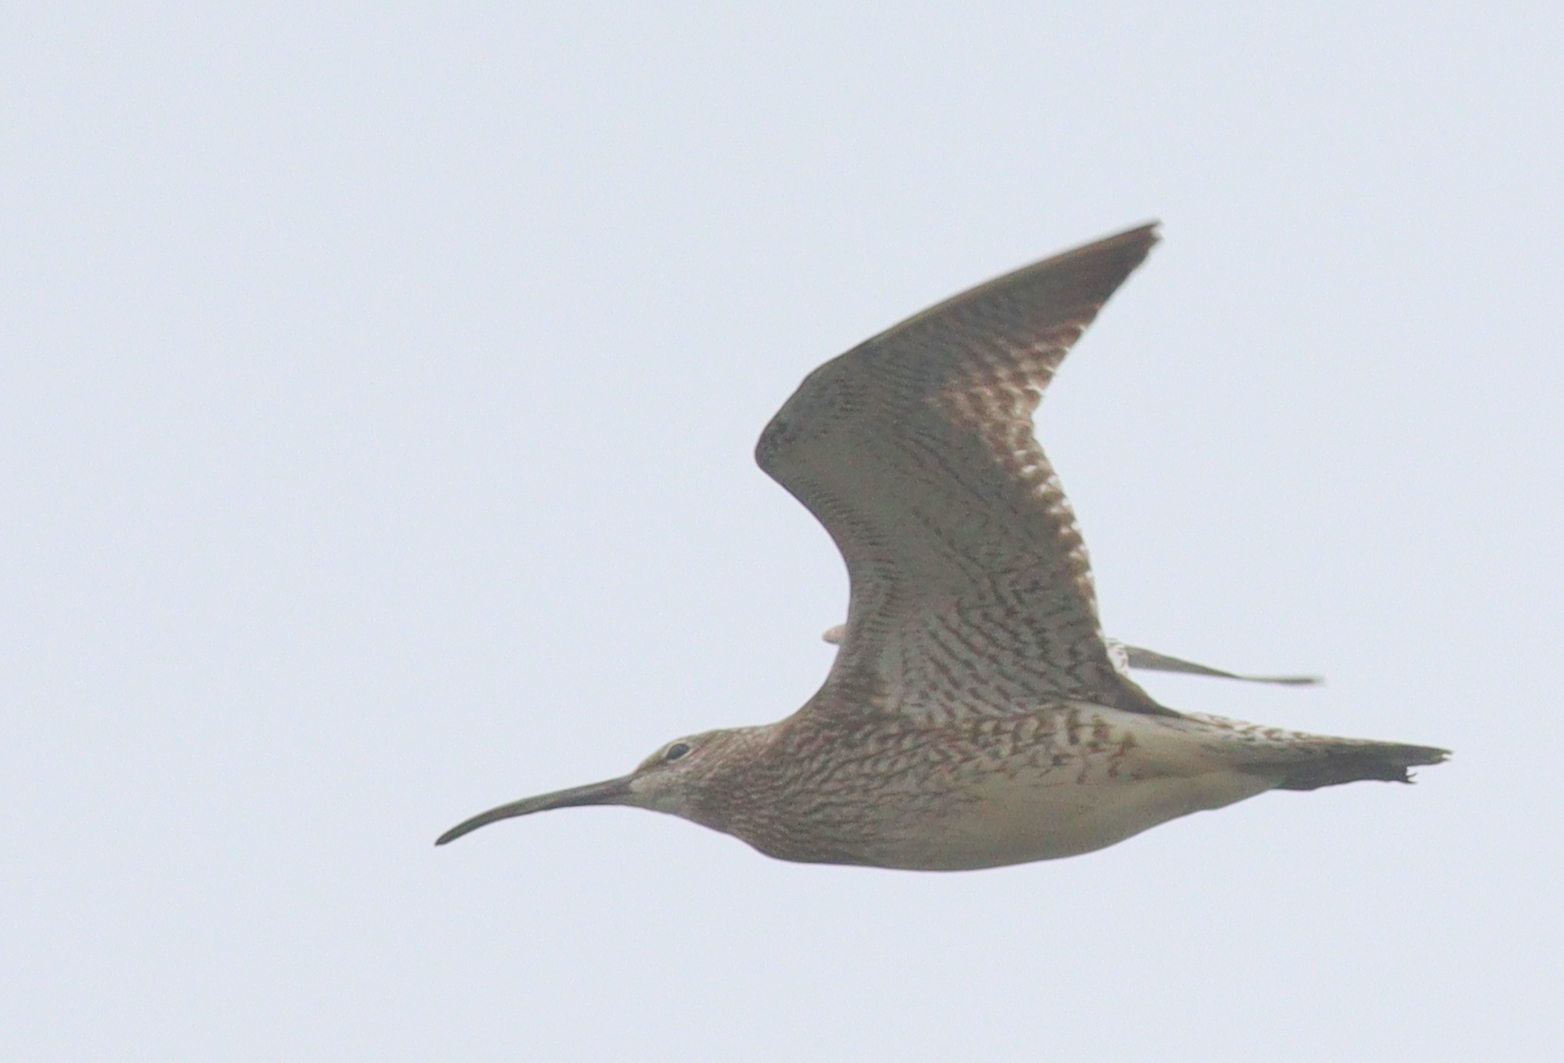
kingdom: Animalia
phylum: Chordata
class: Aves
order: Charadriiformes
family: Scolopacidae
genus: Numenius
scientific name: Numenius phaeopus
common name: Whimbrel
